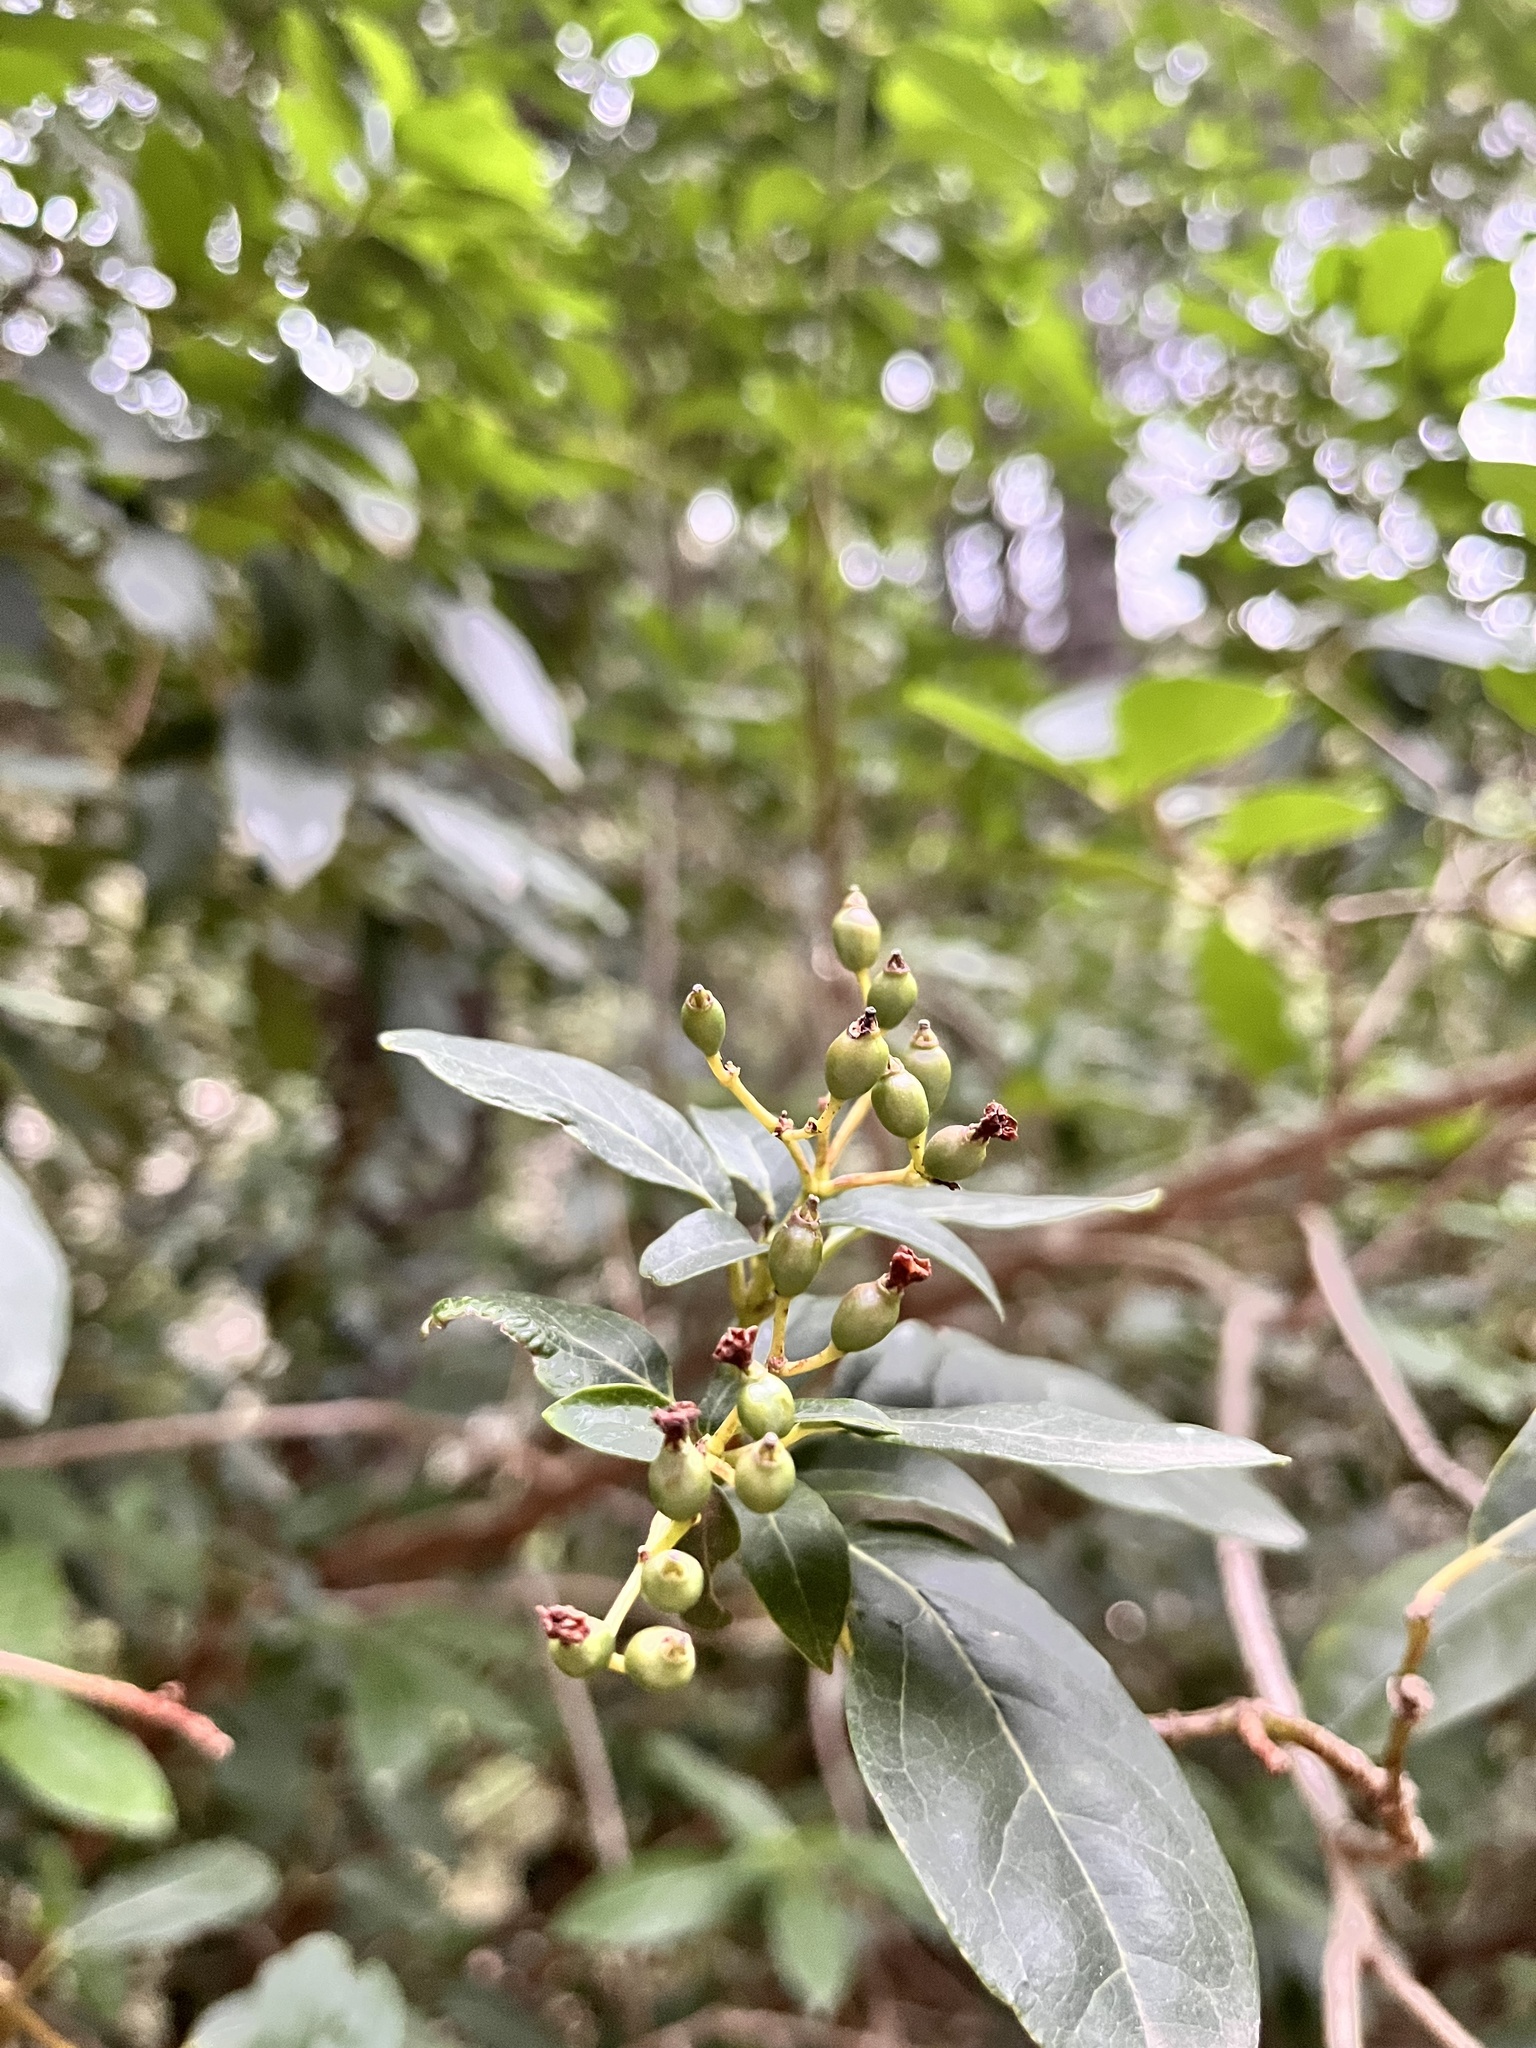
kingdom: Plantae
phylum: Tracheophyta
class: Magnoliopsida
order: Dipsacales
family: Viburnaceae
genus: Viburnum
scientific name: Viburnum tinus
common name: Laurustinus
